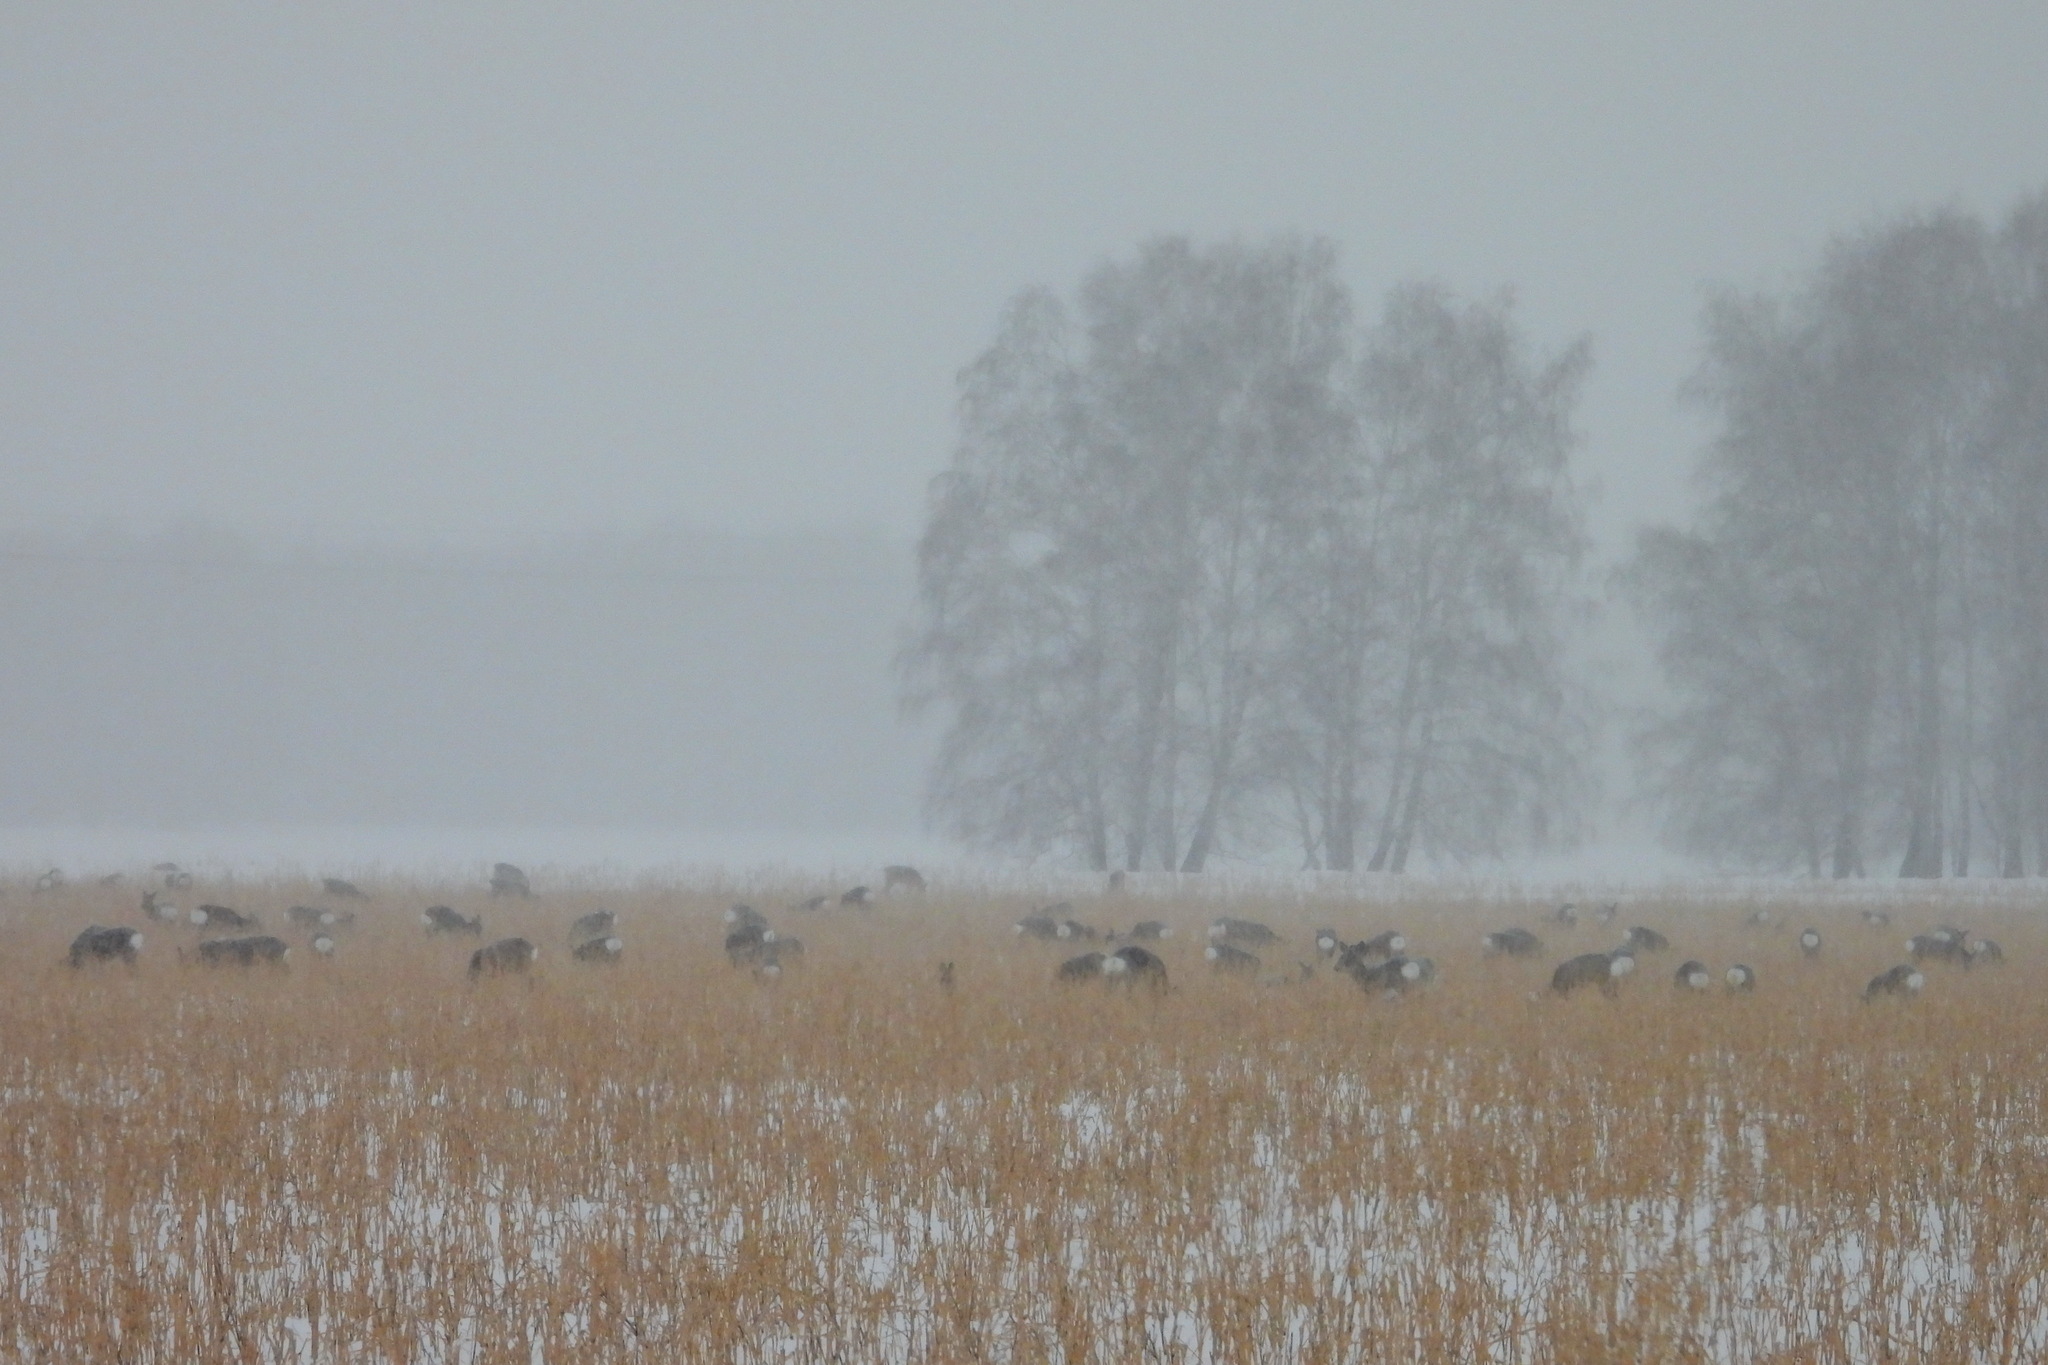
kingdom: Animalia
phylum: Chordata
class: Mammalia
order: Artiodactyla
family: Cervidae
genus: Capreolus
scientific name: Capreolus pygargus
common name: Siberian roe
